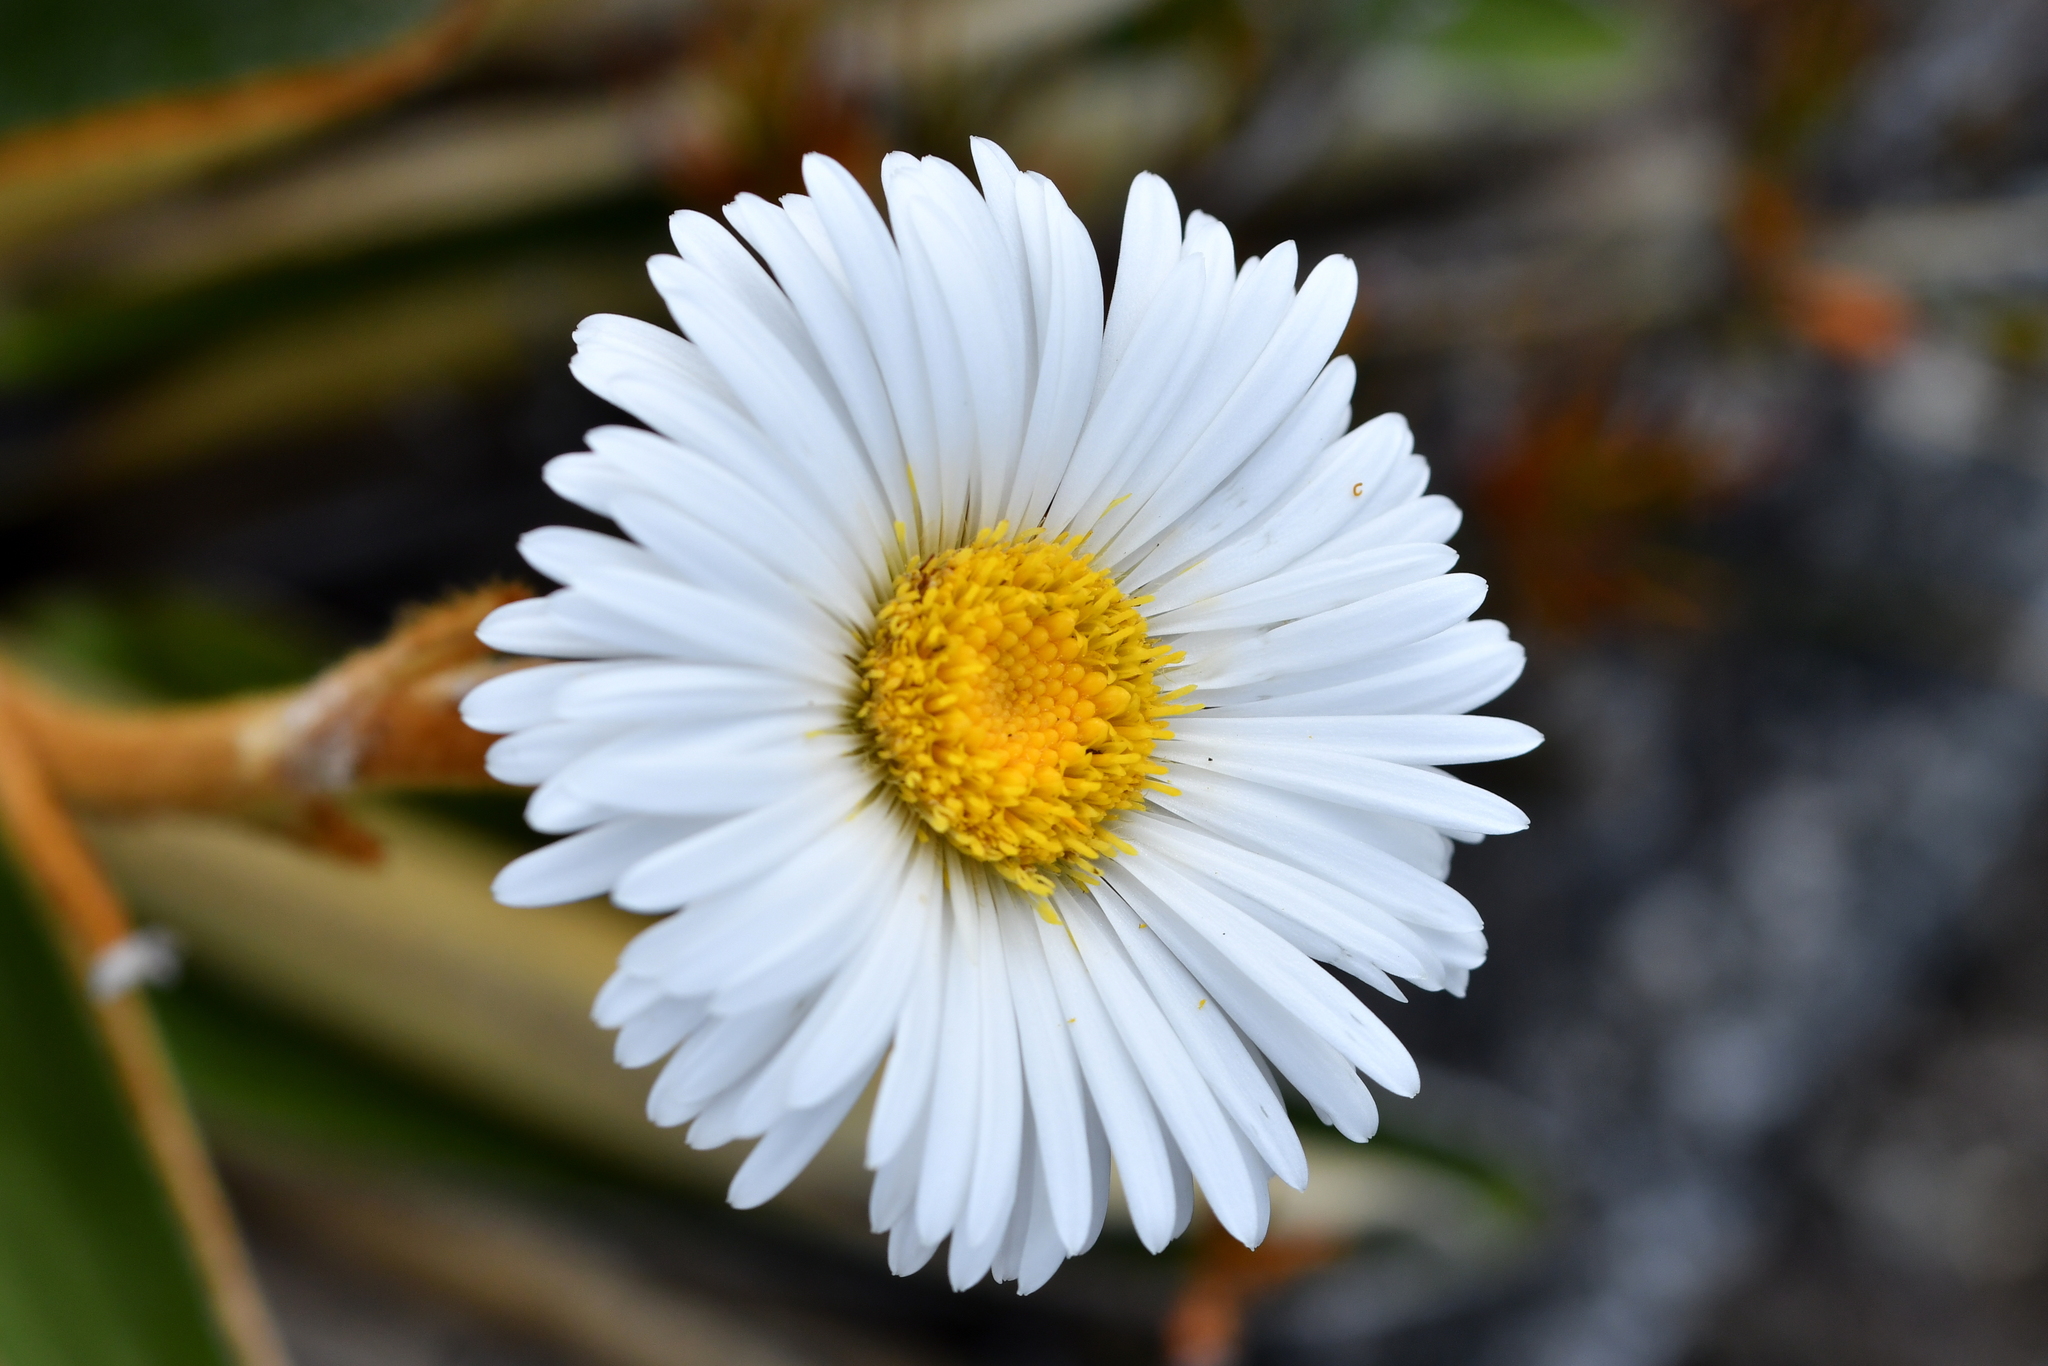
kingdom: Plantae
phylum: Tracheophyta
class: Magnoliopsida
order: Asterales
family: Asteraceae
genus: Celmisia
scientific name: Celmisia traversii
